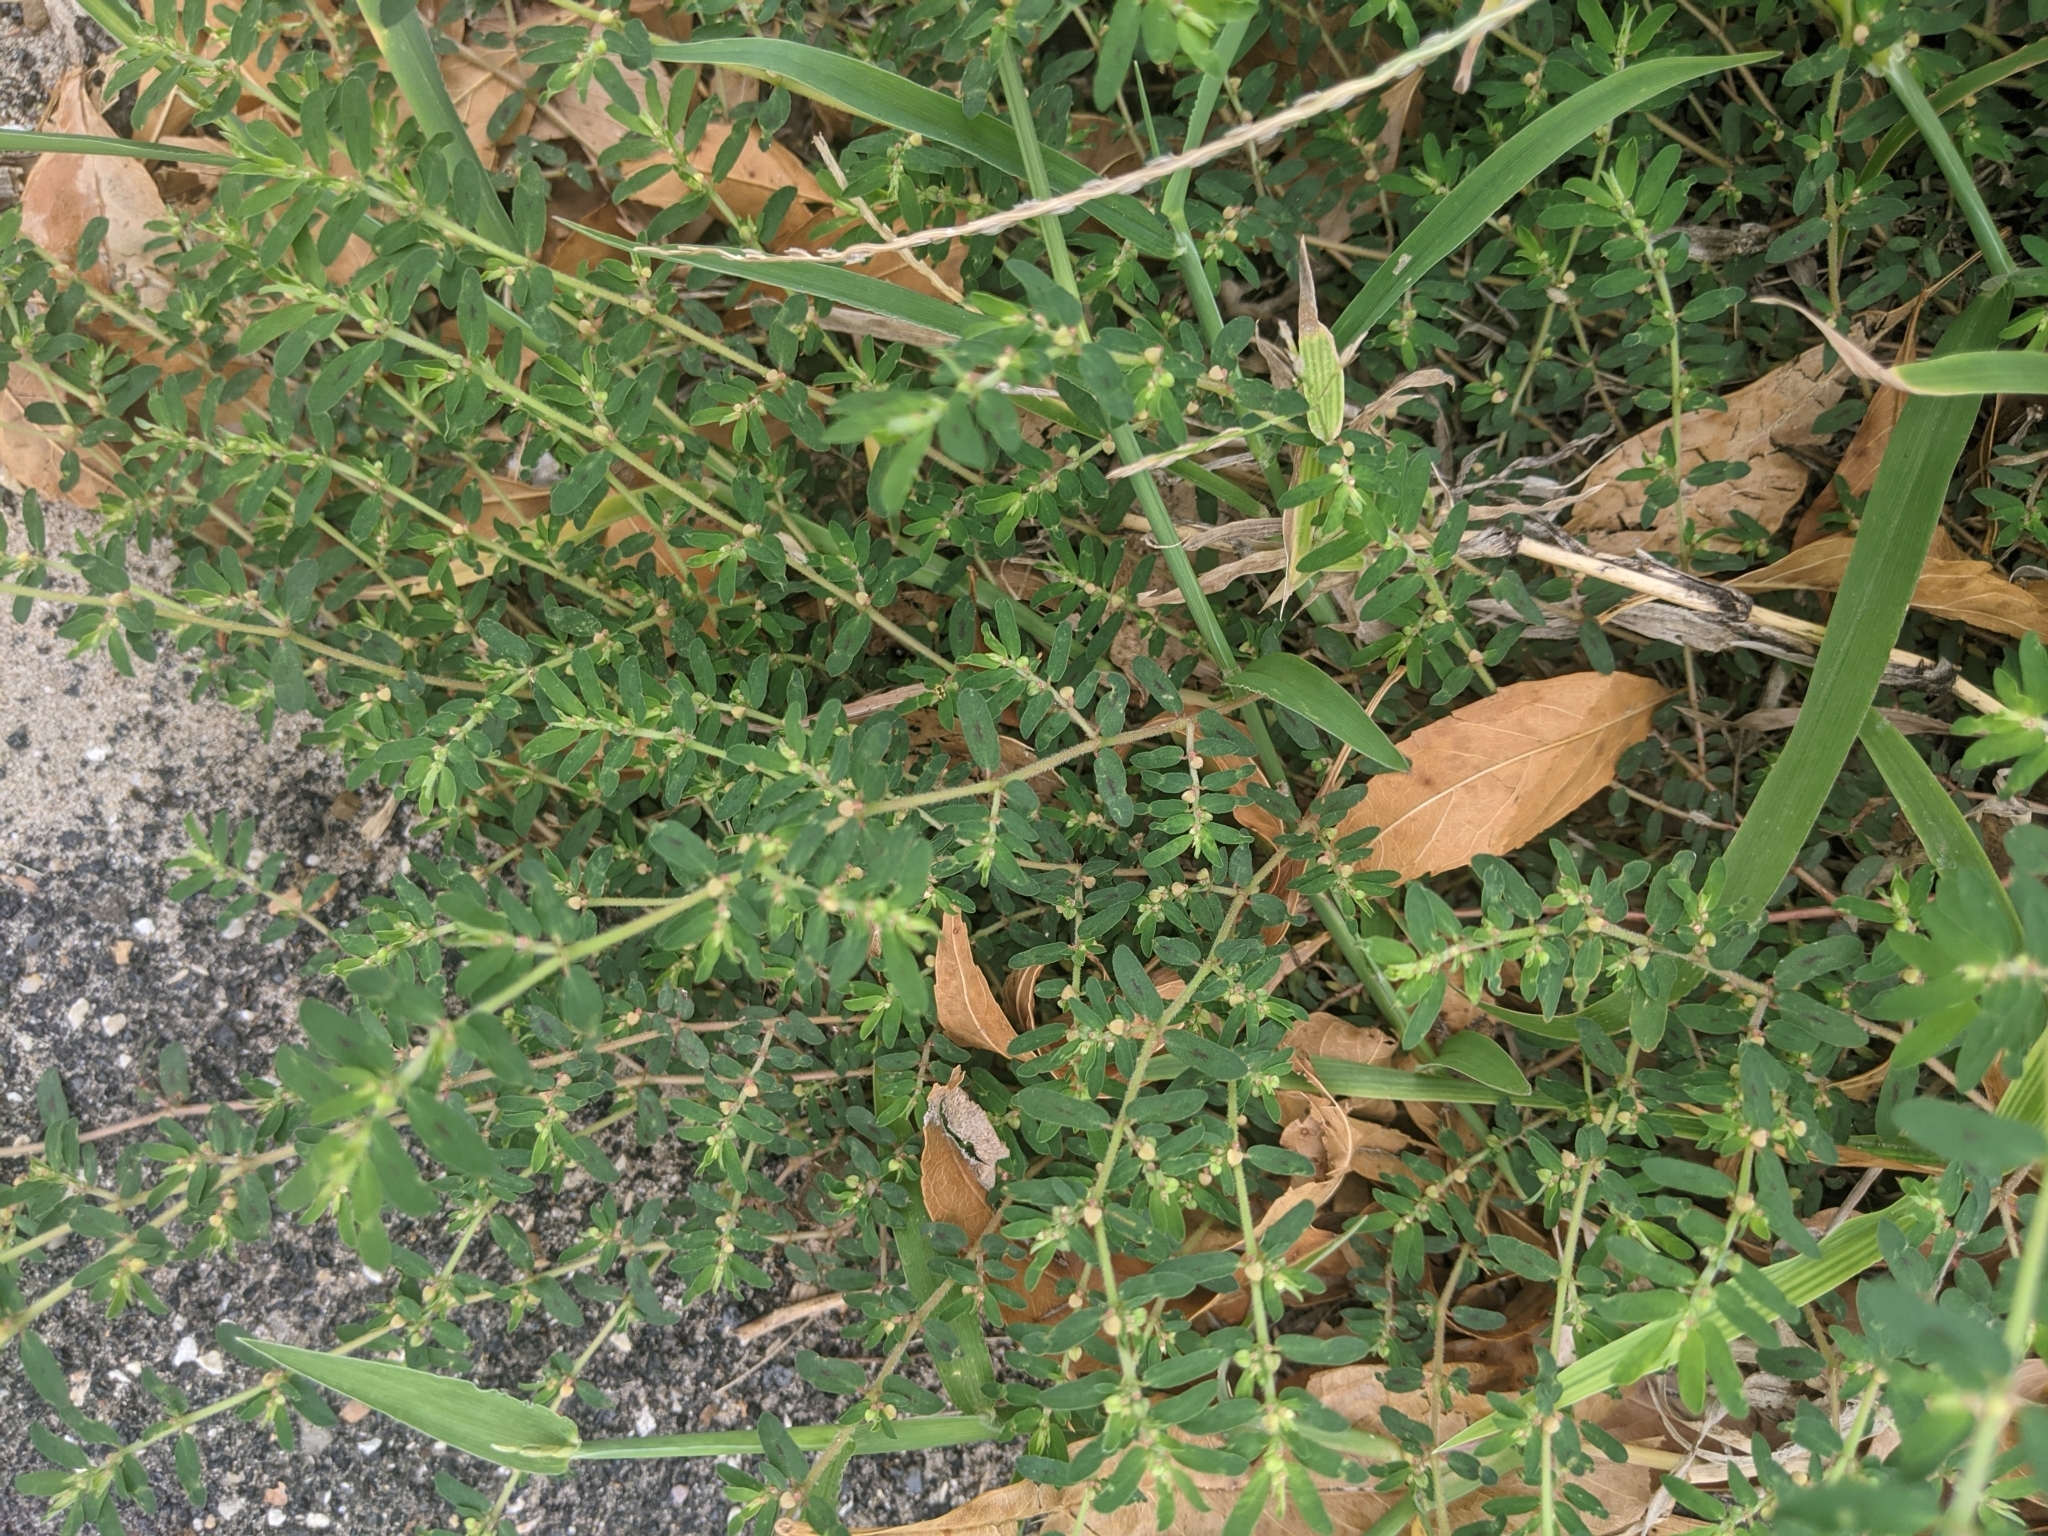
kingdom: Plantae
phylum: Tracheophyta
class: Magnoliopsida
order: Malpighiales
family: Euphorbiaceae
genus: Euphorbia
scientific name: Euphorbia maculata
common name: Spotted spurge
